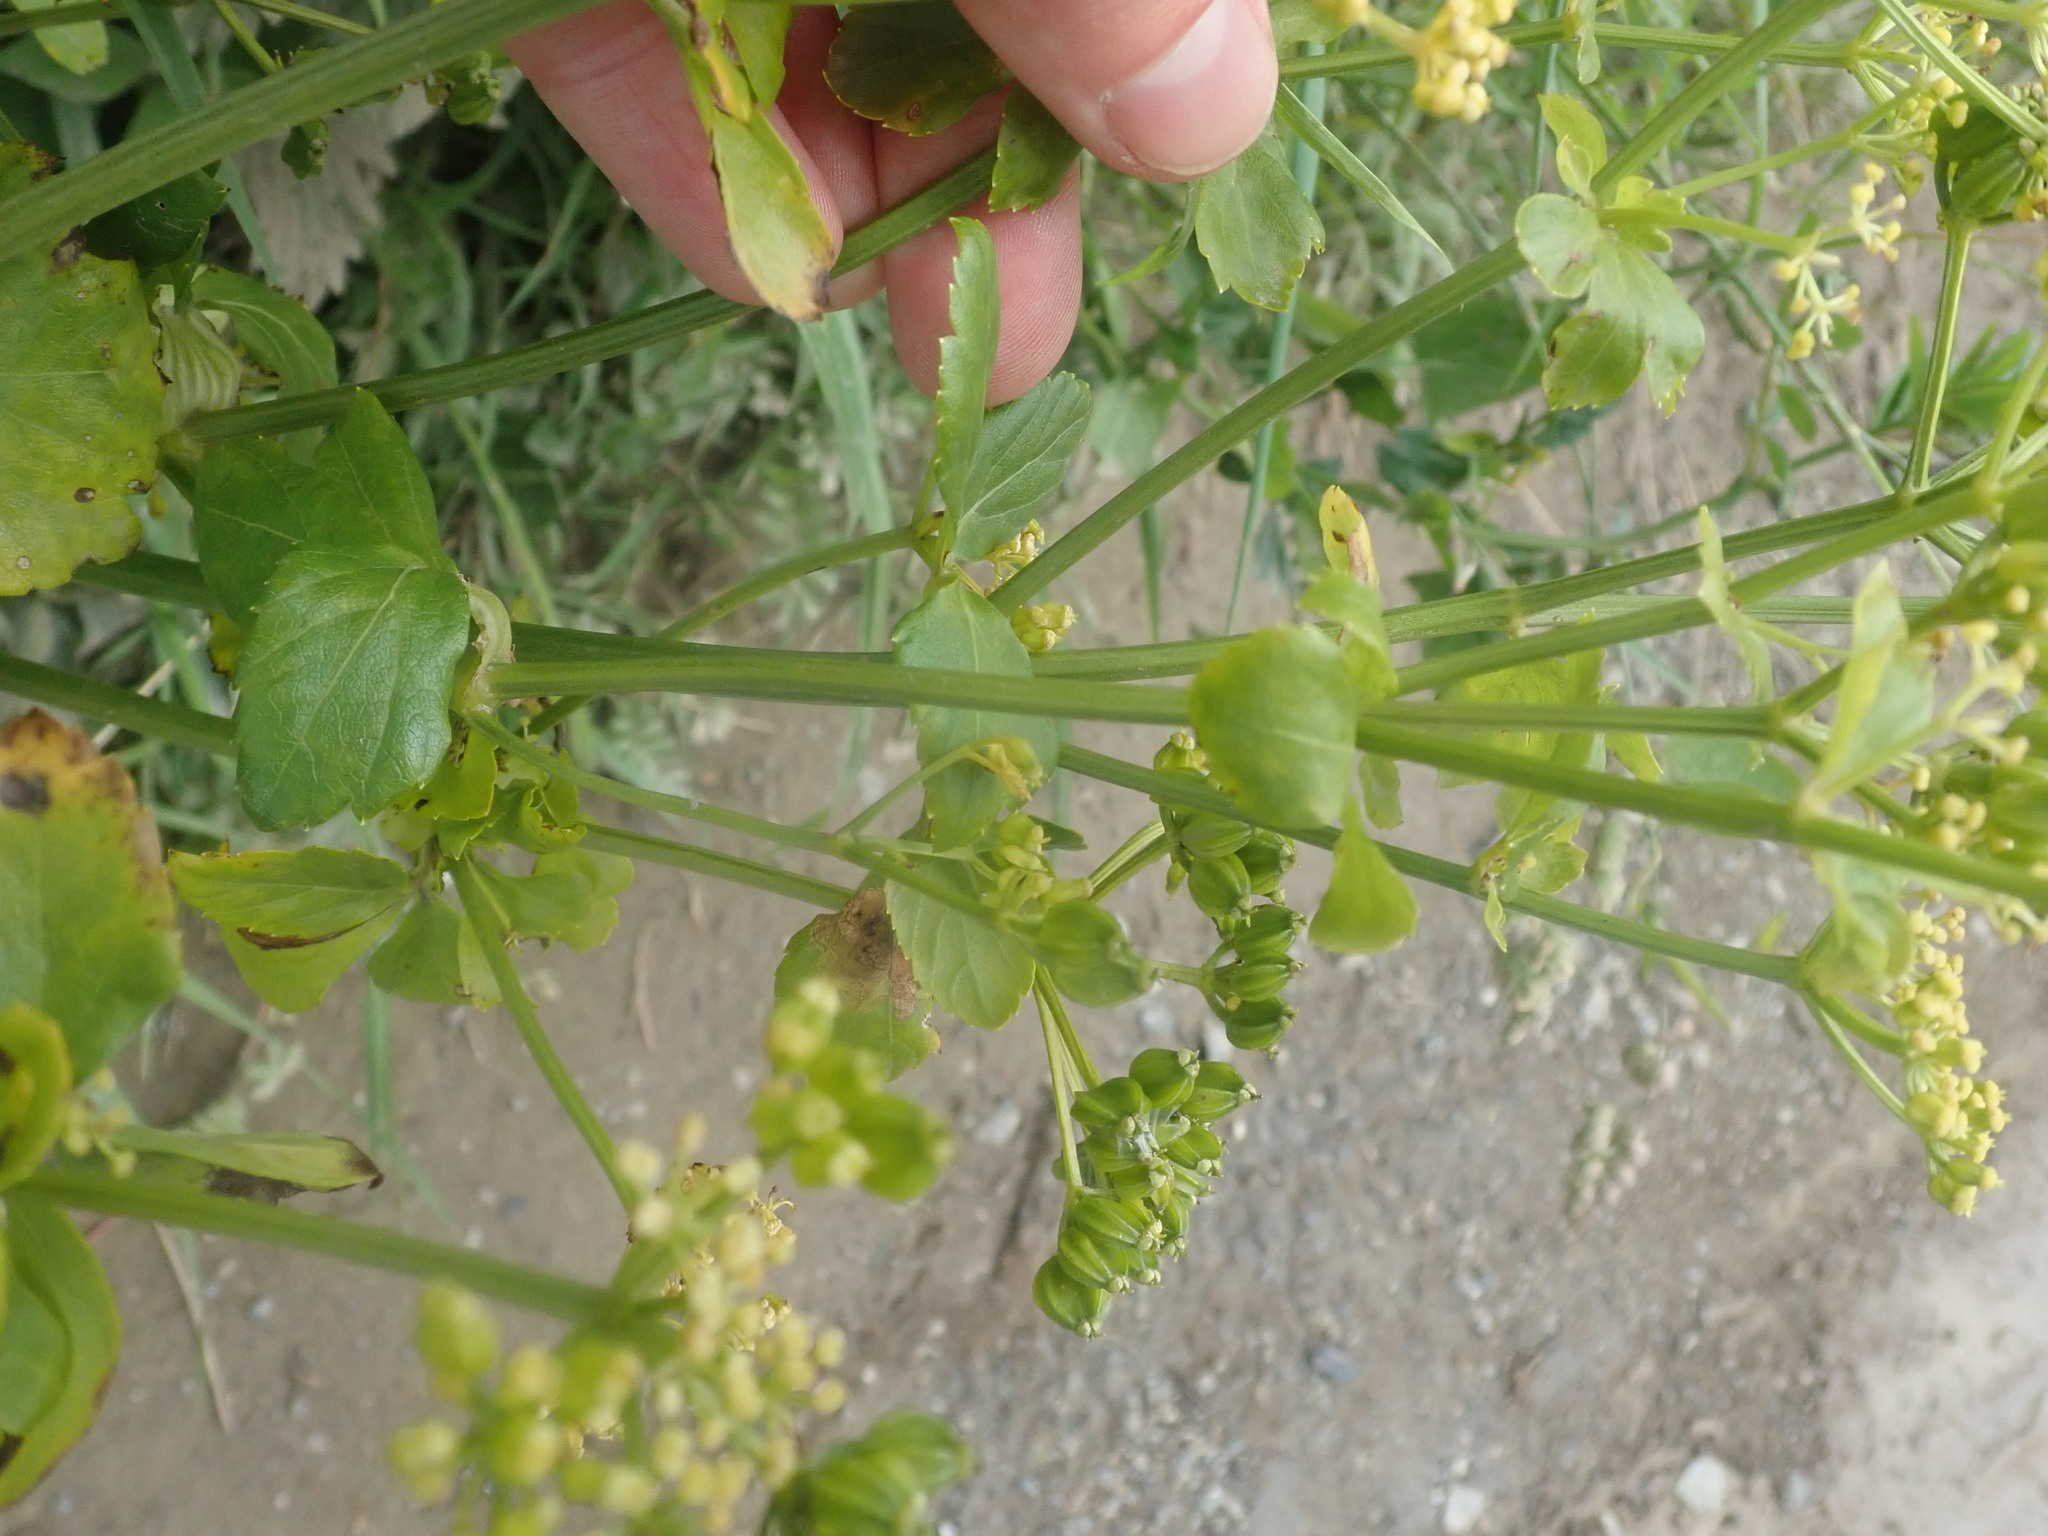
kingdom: Plantae
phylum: Tracheophyta
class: Magnoliopsida
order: Apiales
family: Apiaceae
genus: Smyrnium
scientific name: Smyrnium olusatrum
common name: Alexanders
